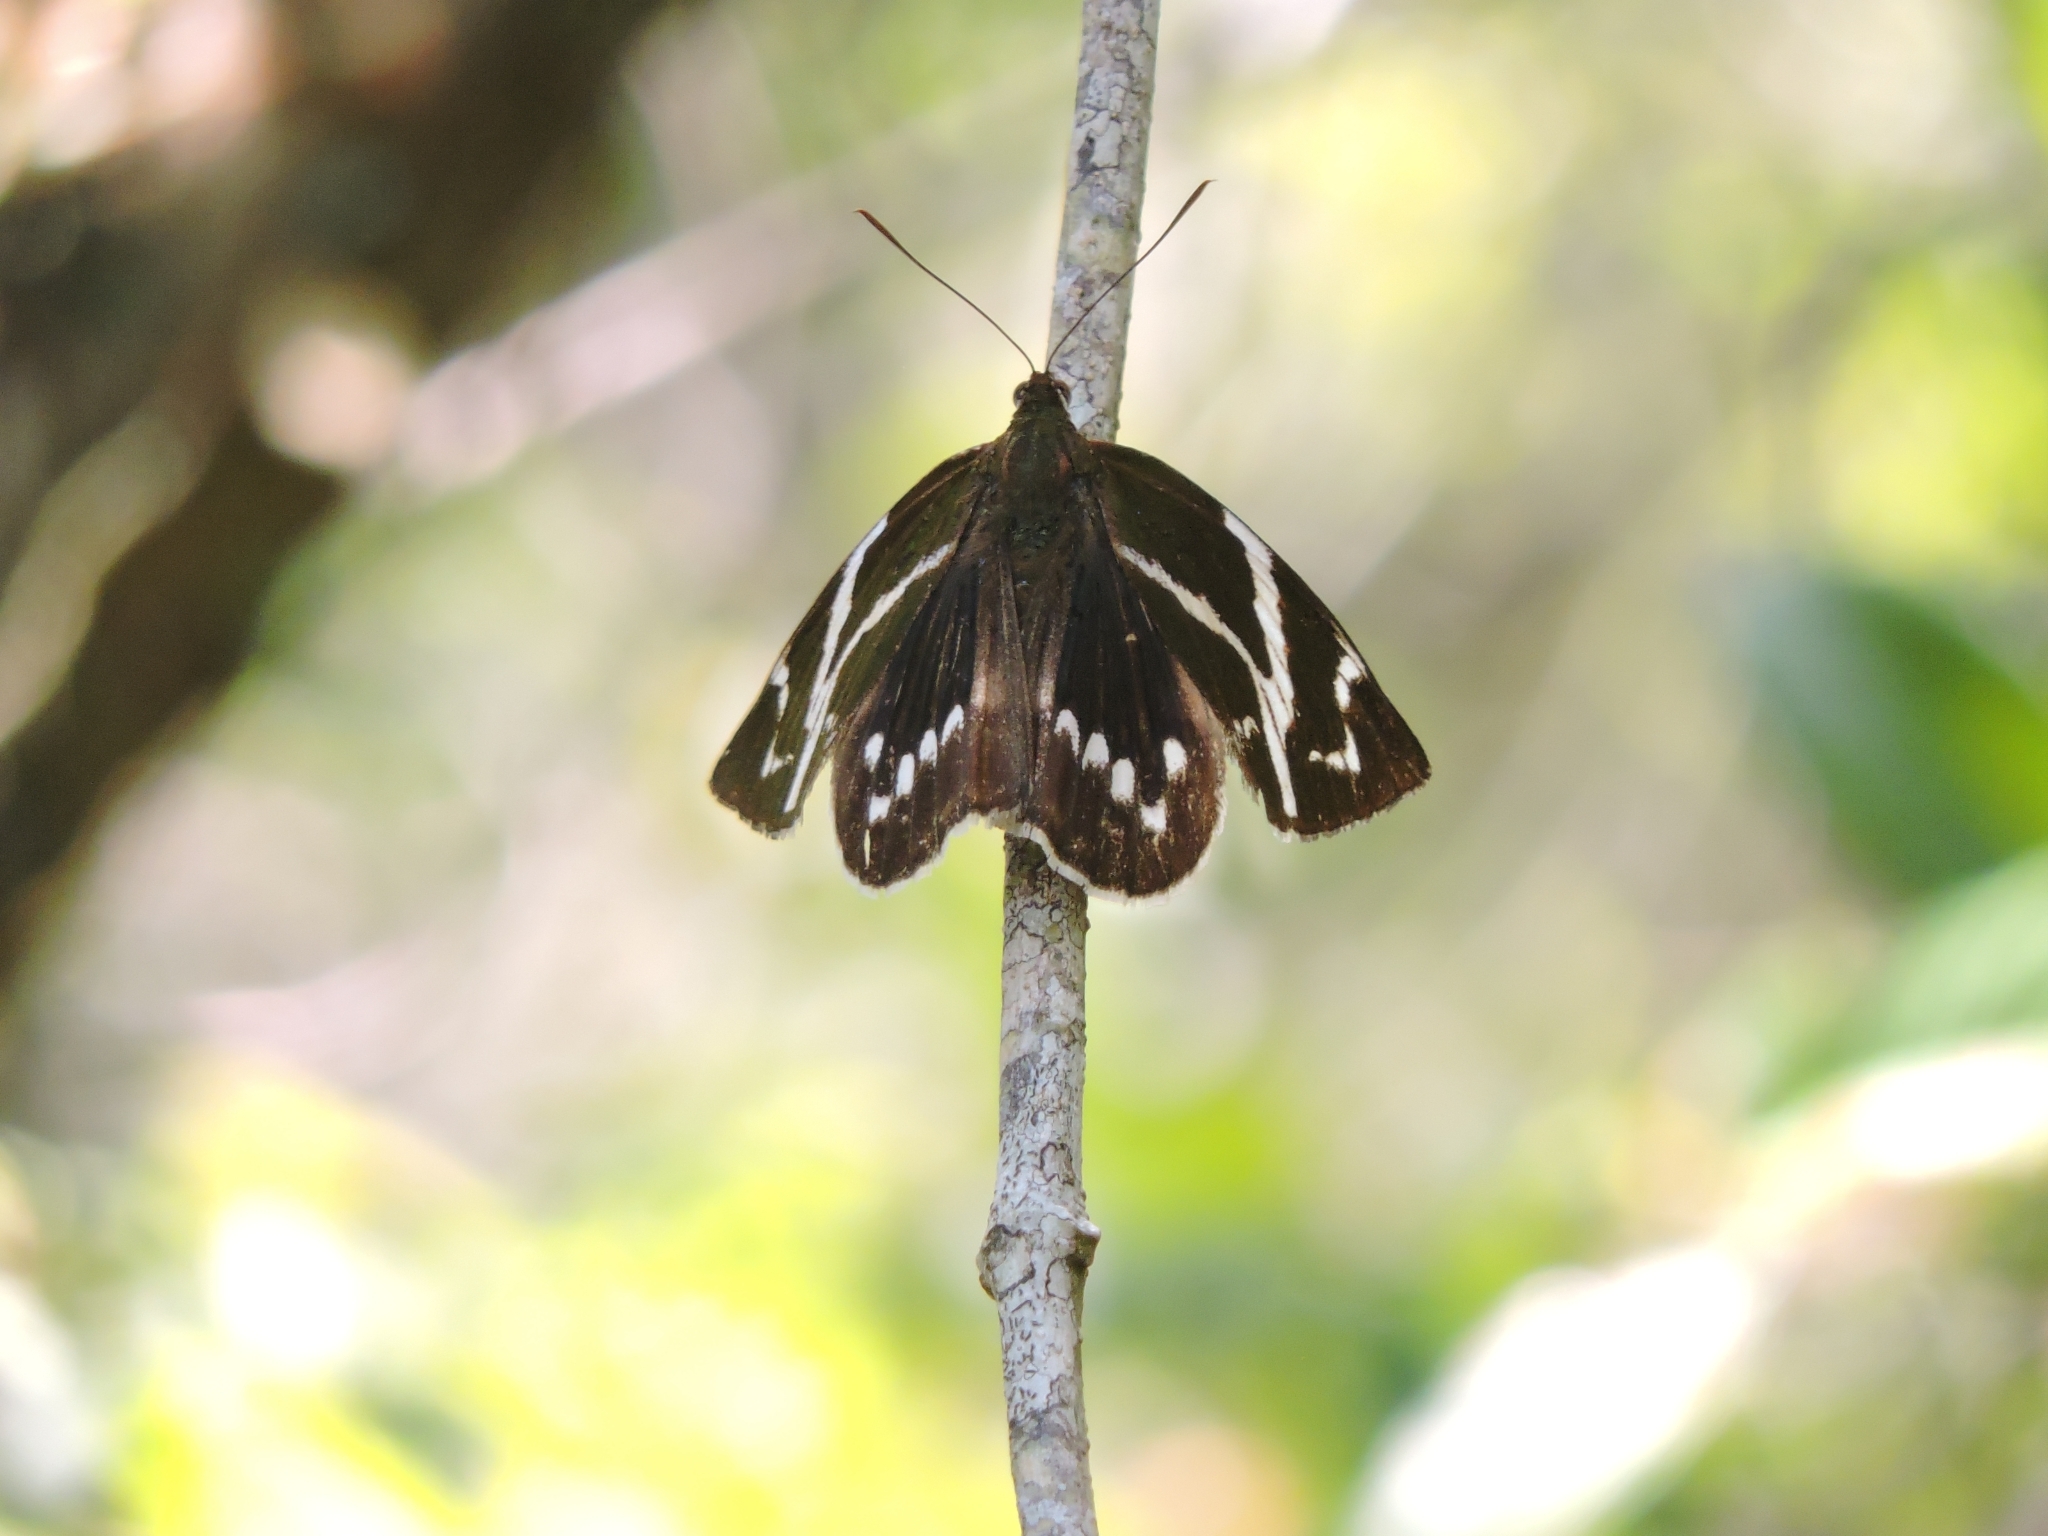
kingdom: Animalia
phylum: Mollusca
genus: Geyeria
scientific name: Geyeria
